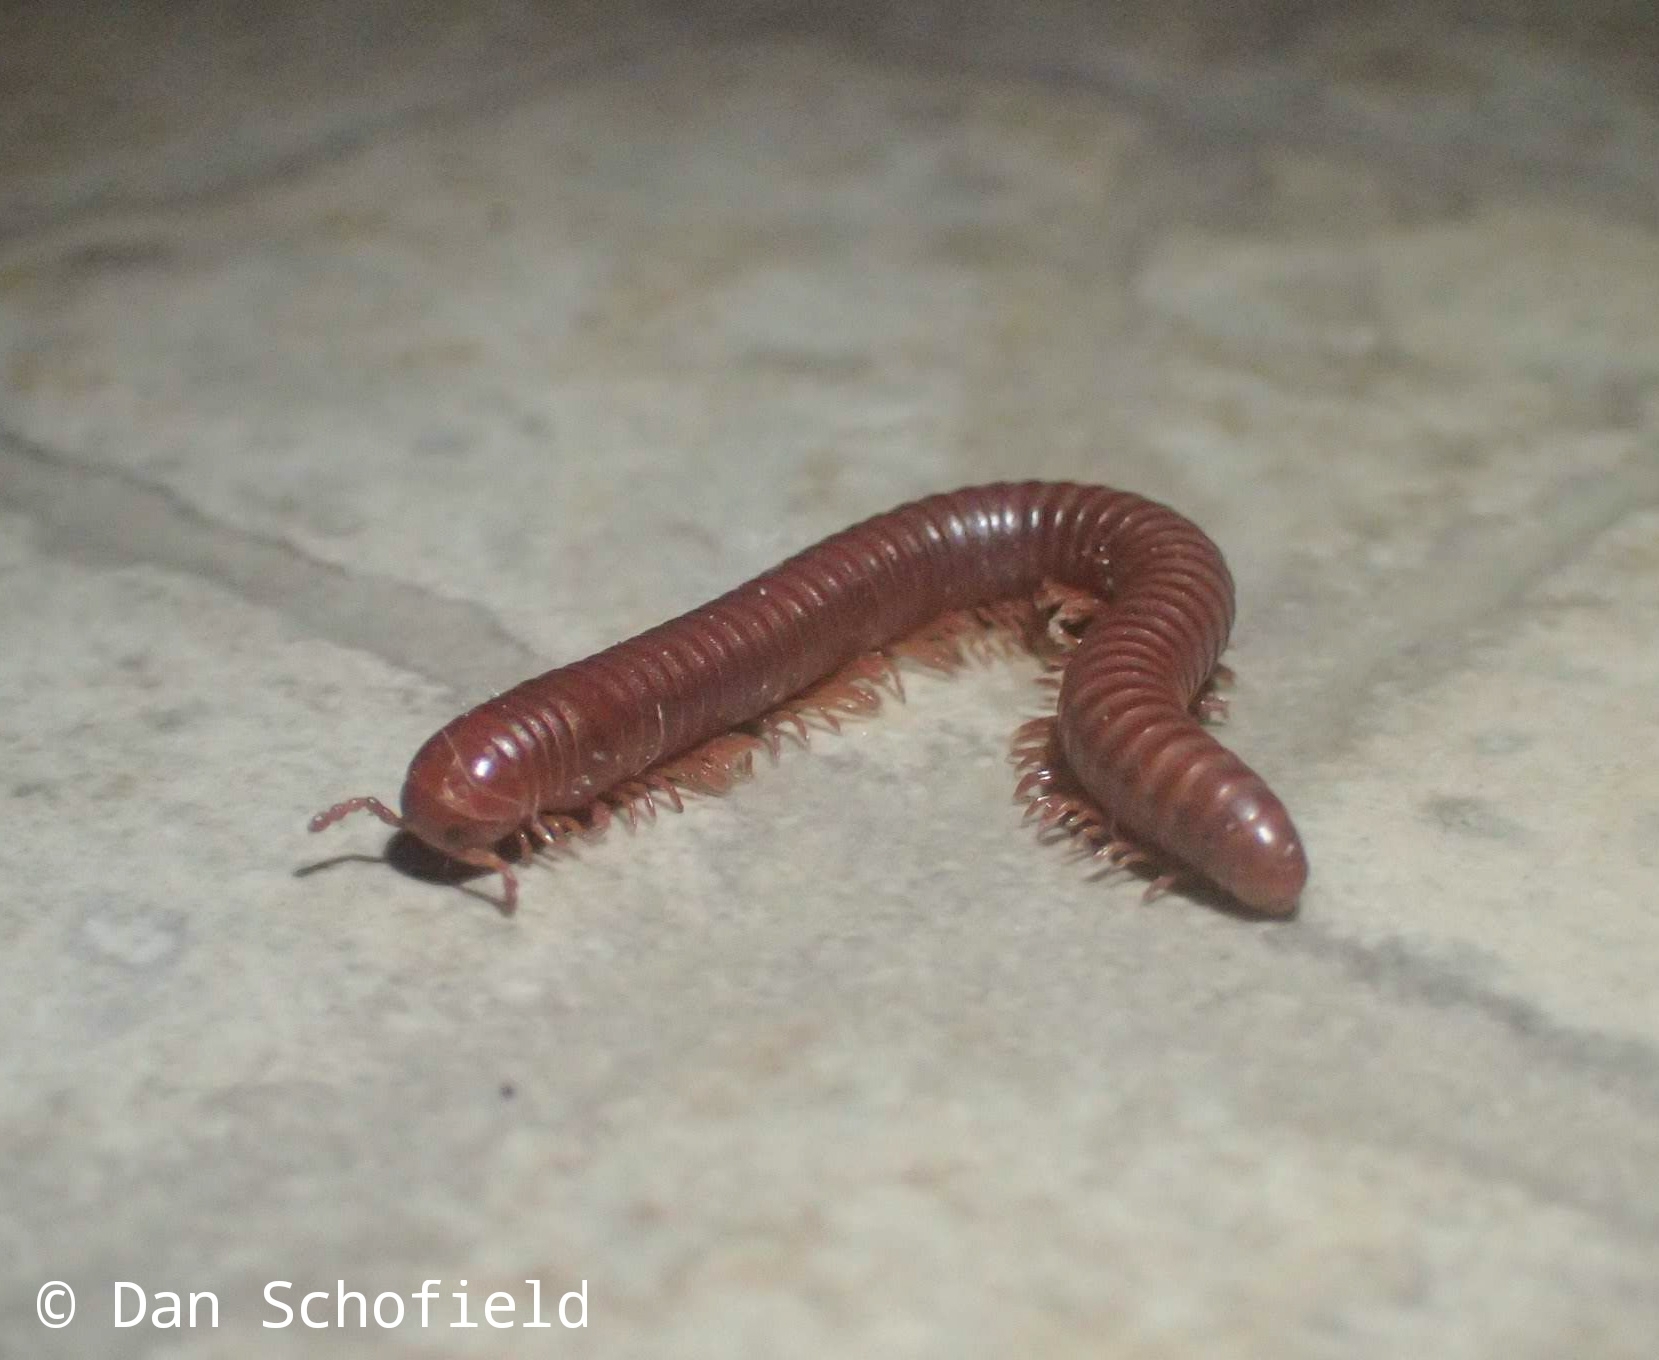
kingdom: Animalia
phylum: Arthropoda
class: Diplopoda
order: Spirobolida
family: Pachybolidae
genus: Trigoniulus
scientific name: Trigoniulus corallinus
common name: Millipede
